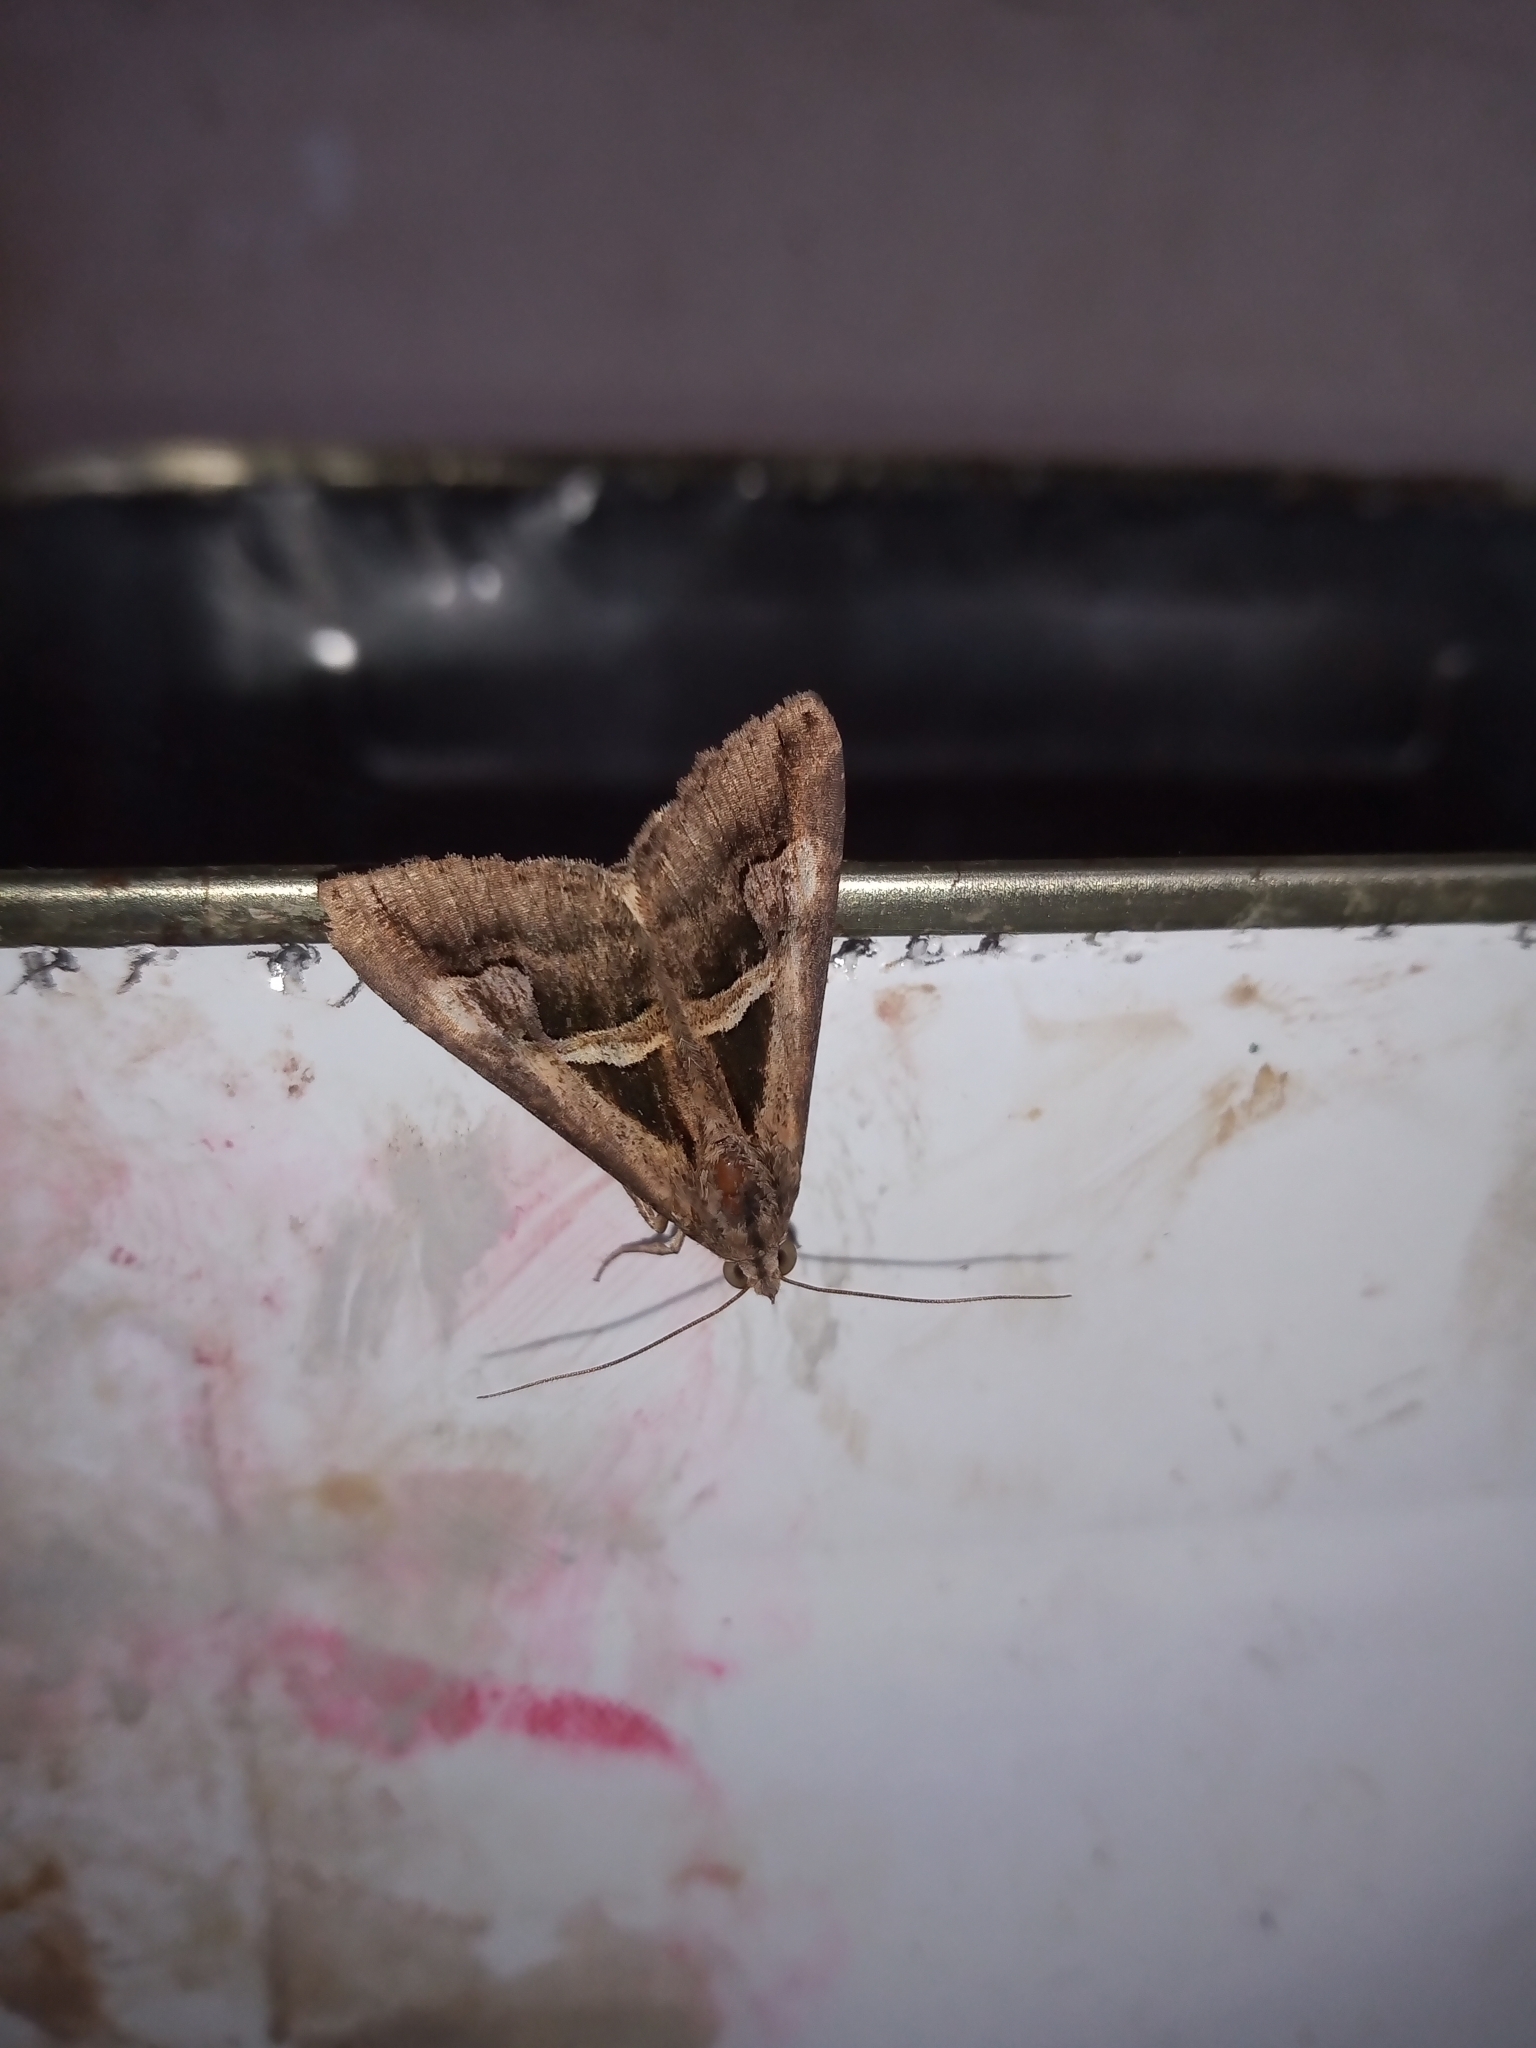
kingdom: Animalia
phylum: Arthropoda
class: Insecta
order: Lepidoptera
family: Erebidae
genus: Melipotis
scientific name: Melipotis cellaris
